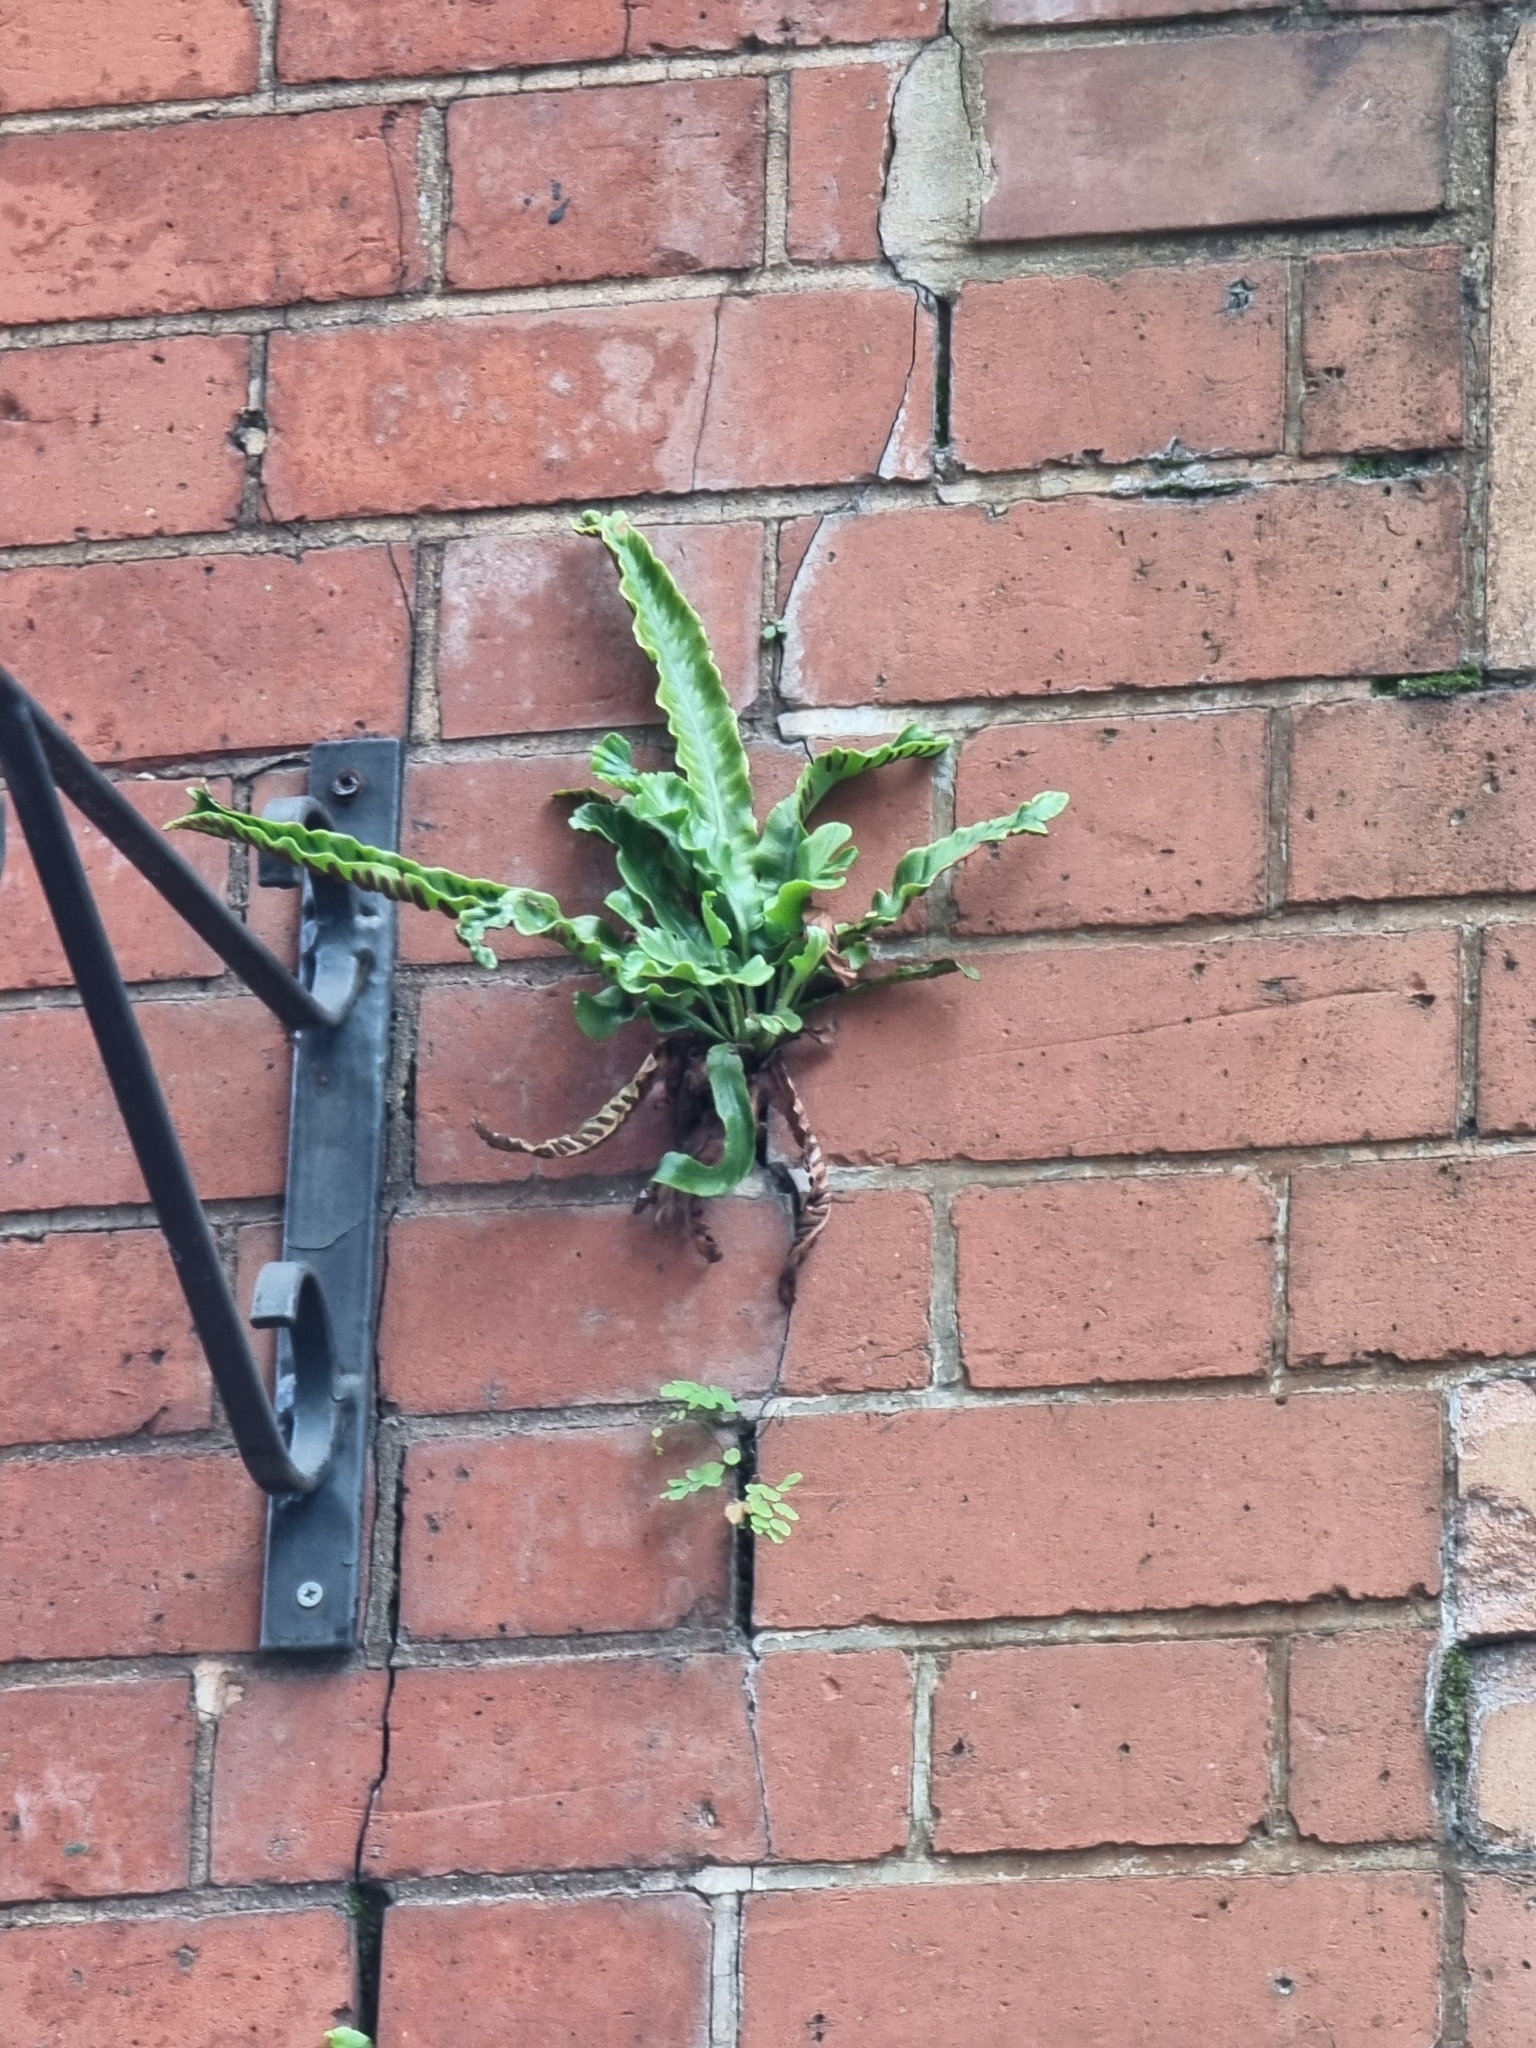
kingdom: Plantae
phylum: Tracheophyta
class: Polypodiopsida
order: Polypodiales
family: Aspleniaceae
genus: Asplenium
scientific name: Asplenium scolopendrium
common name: Hart's-tongue fern
